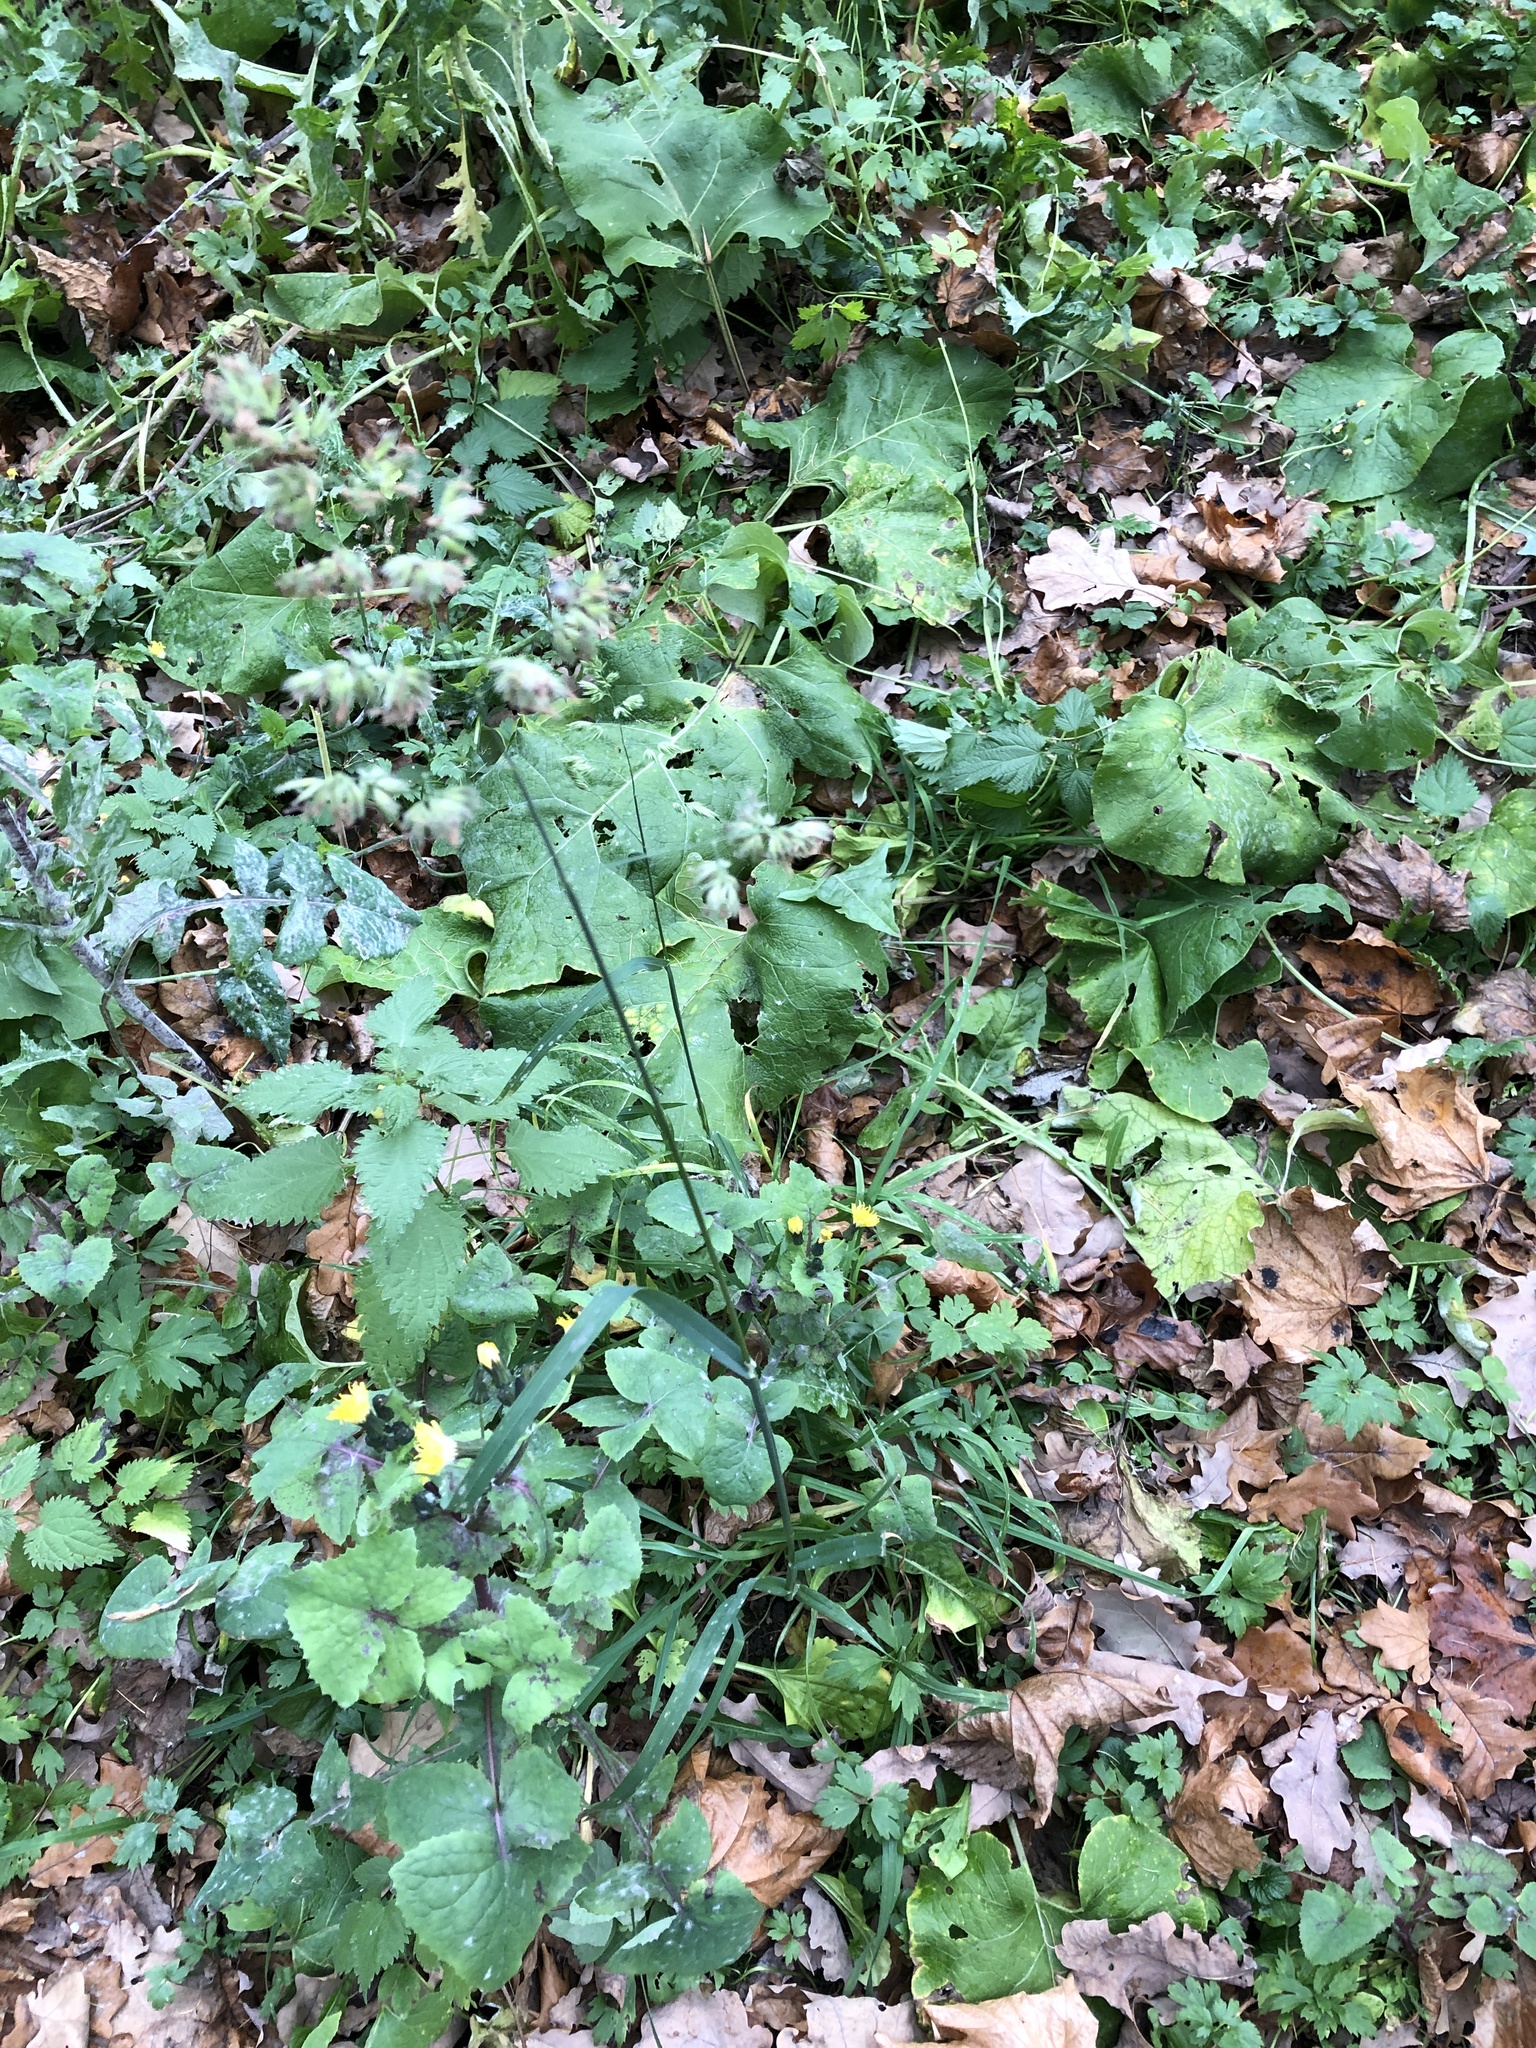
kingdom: Plantae
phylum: Tracheophyta
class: Liliopsida
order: Poales
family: Poaceae
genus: Dactylis
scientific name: Dactylis glomerata
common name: Orchardgrass
